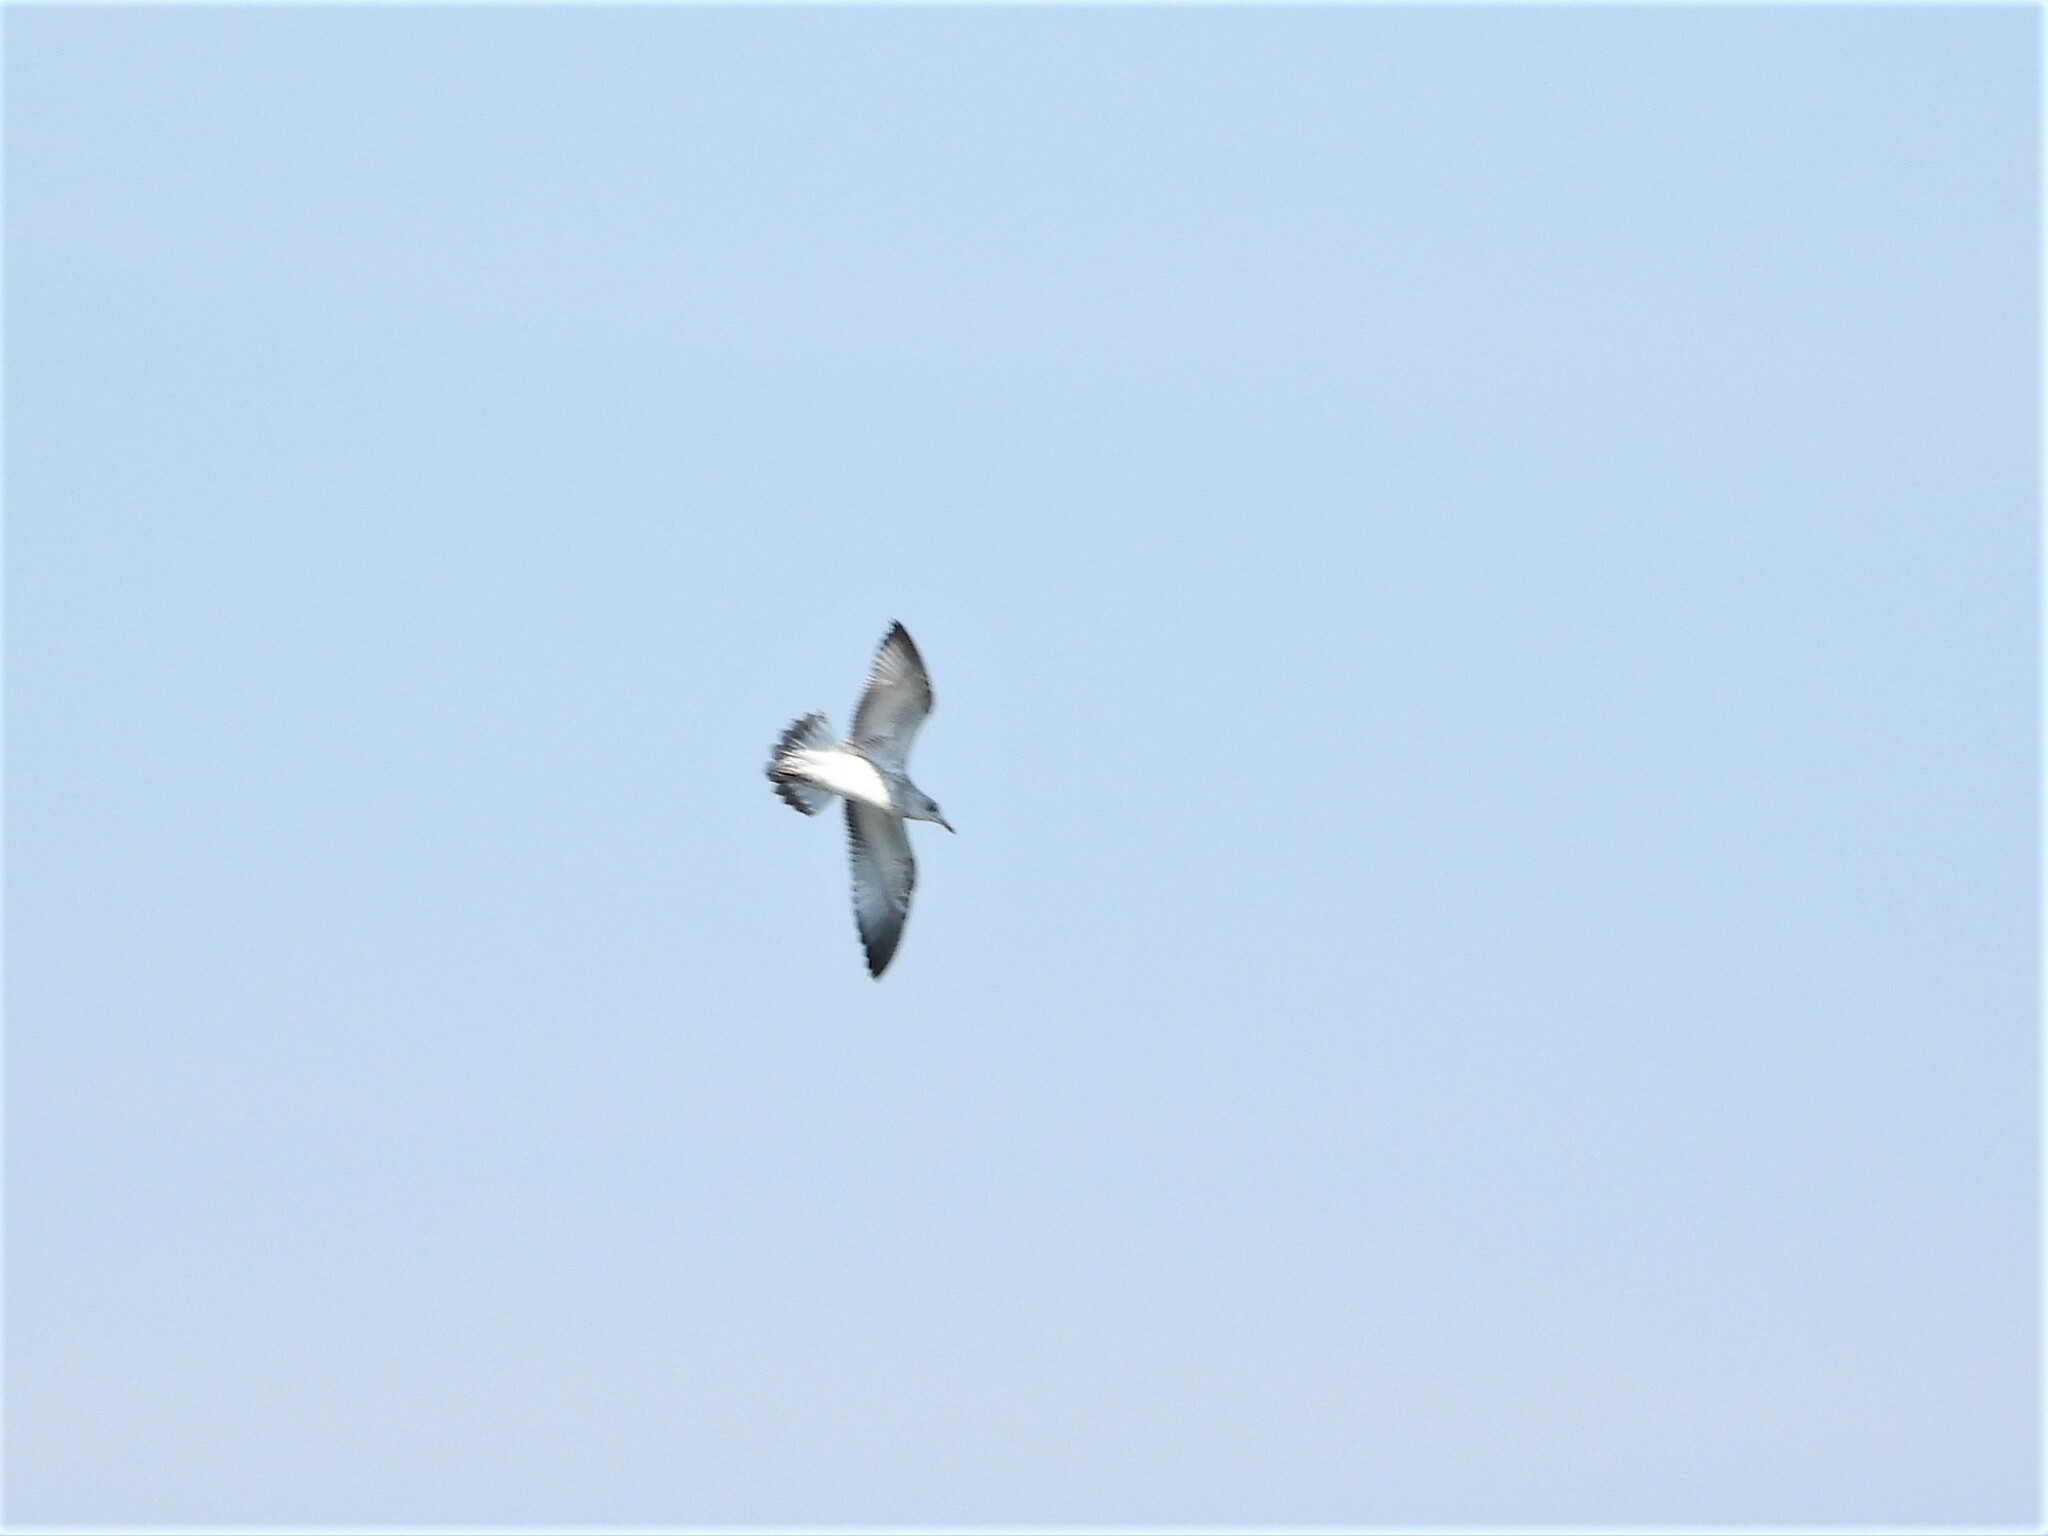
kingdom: Animalia
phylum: Chordata
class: Aves
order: Charadriiformes
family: Laridae
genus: Larus
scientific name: Larus delawarensis
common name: Ring-billed gull
